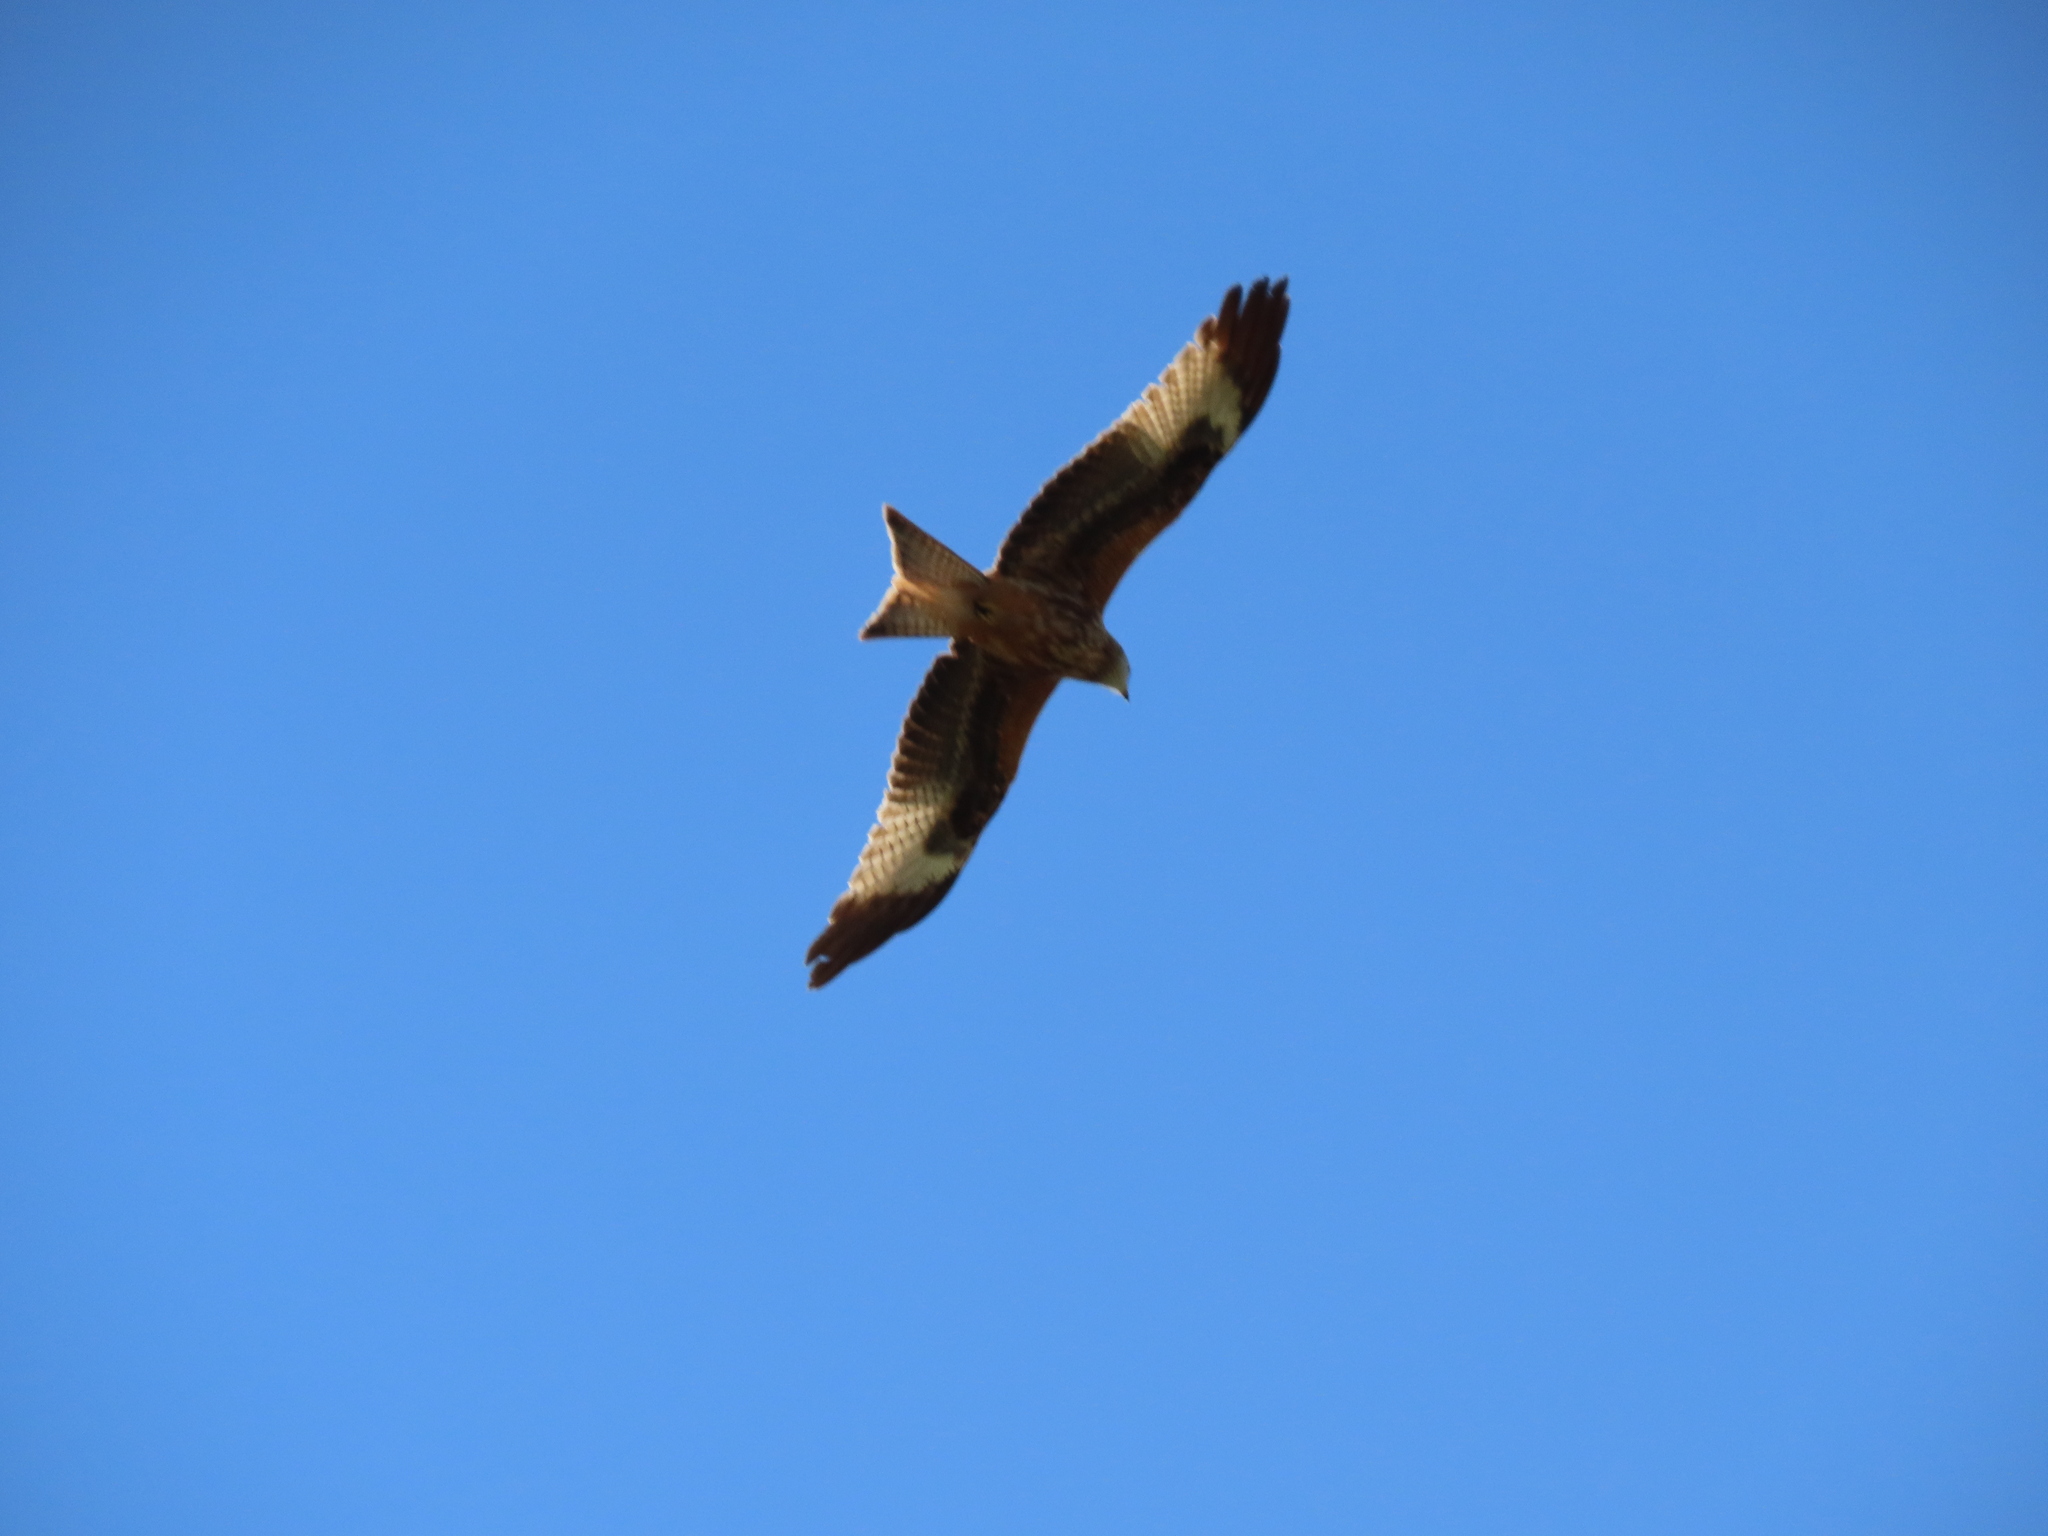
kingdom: Animalia
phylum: Chordata
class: Aves
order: Accipitriformes
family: Accipitridae
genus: Milvus
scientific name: Milvus milvus
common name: Red kite
